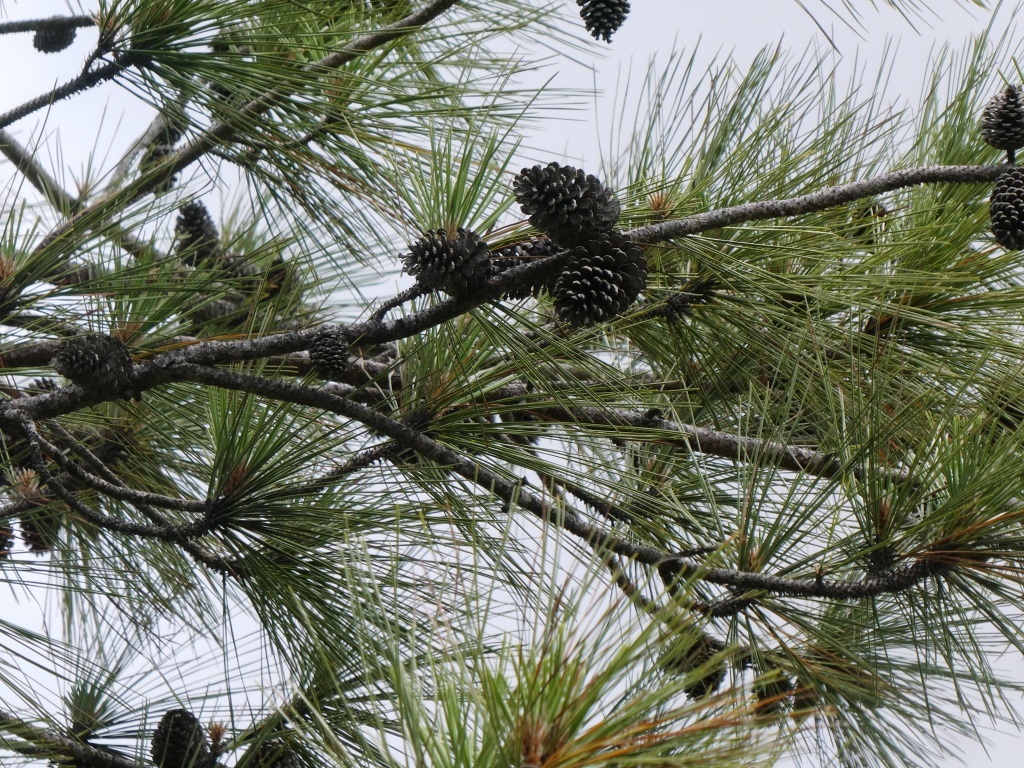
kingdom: Plantae
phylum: Tracheophyta
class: Pinopsida
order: Pinales
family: Pinaceae
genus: Pinus
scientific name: Pinus caribaea
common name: Caribbean pine
